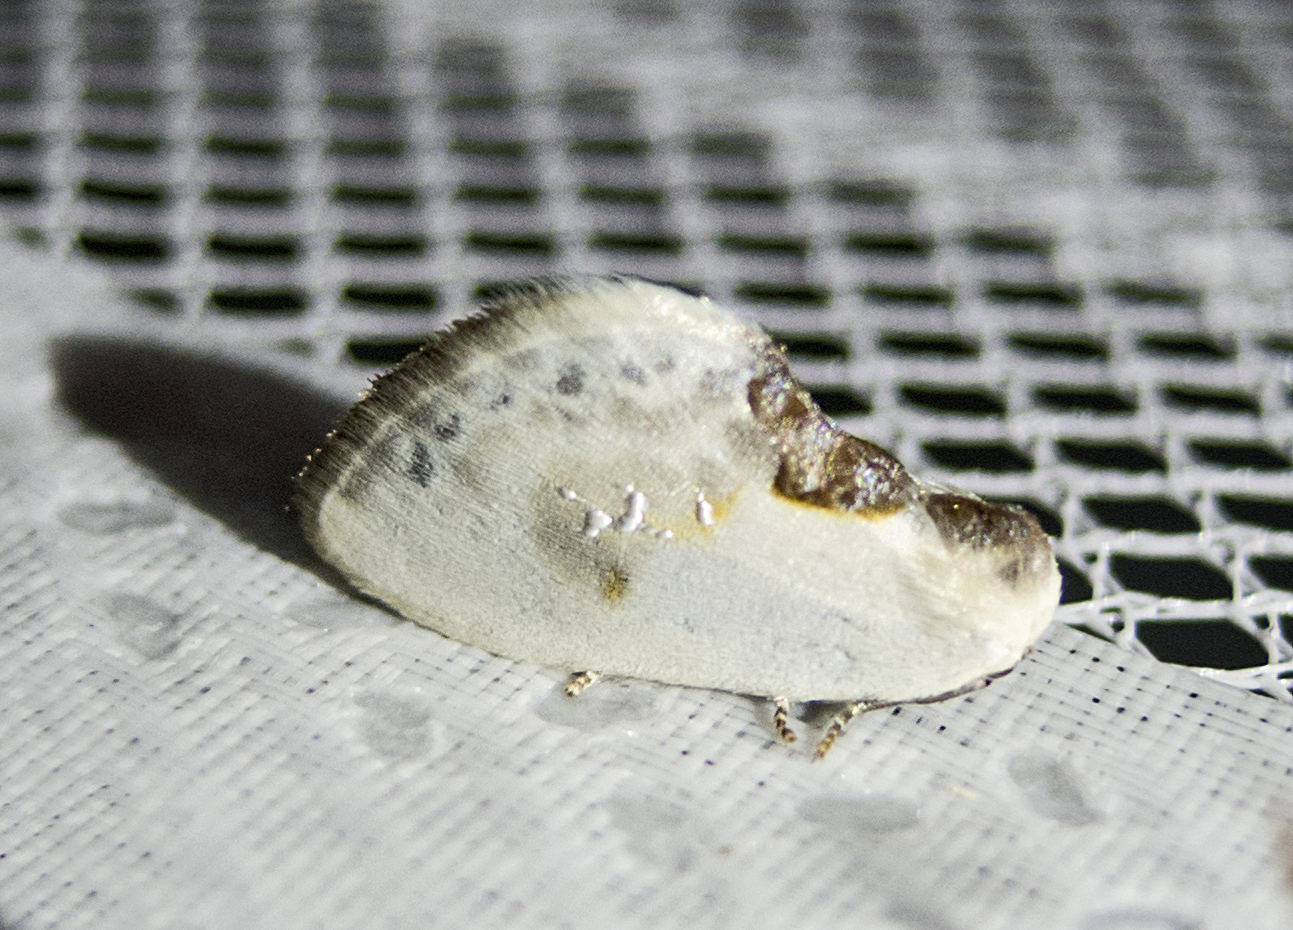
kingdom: Animalia
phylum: Arthropoda
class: Insecta
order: Lepidoptera
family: Drepanidae
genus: Cilix
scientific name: Cilix glaucata
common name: Chinese character
